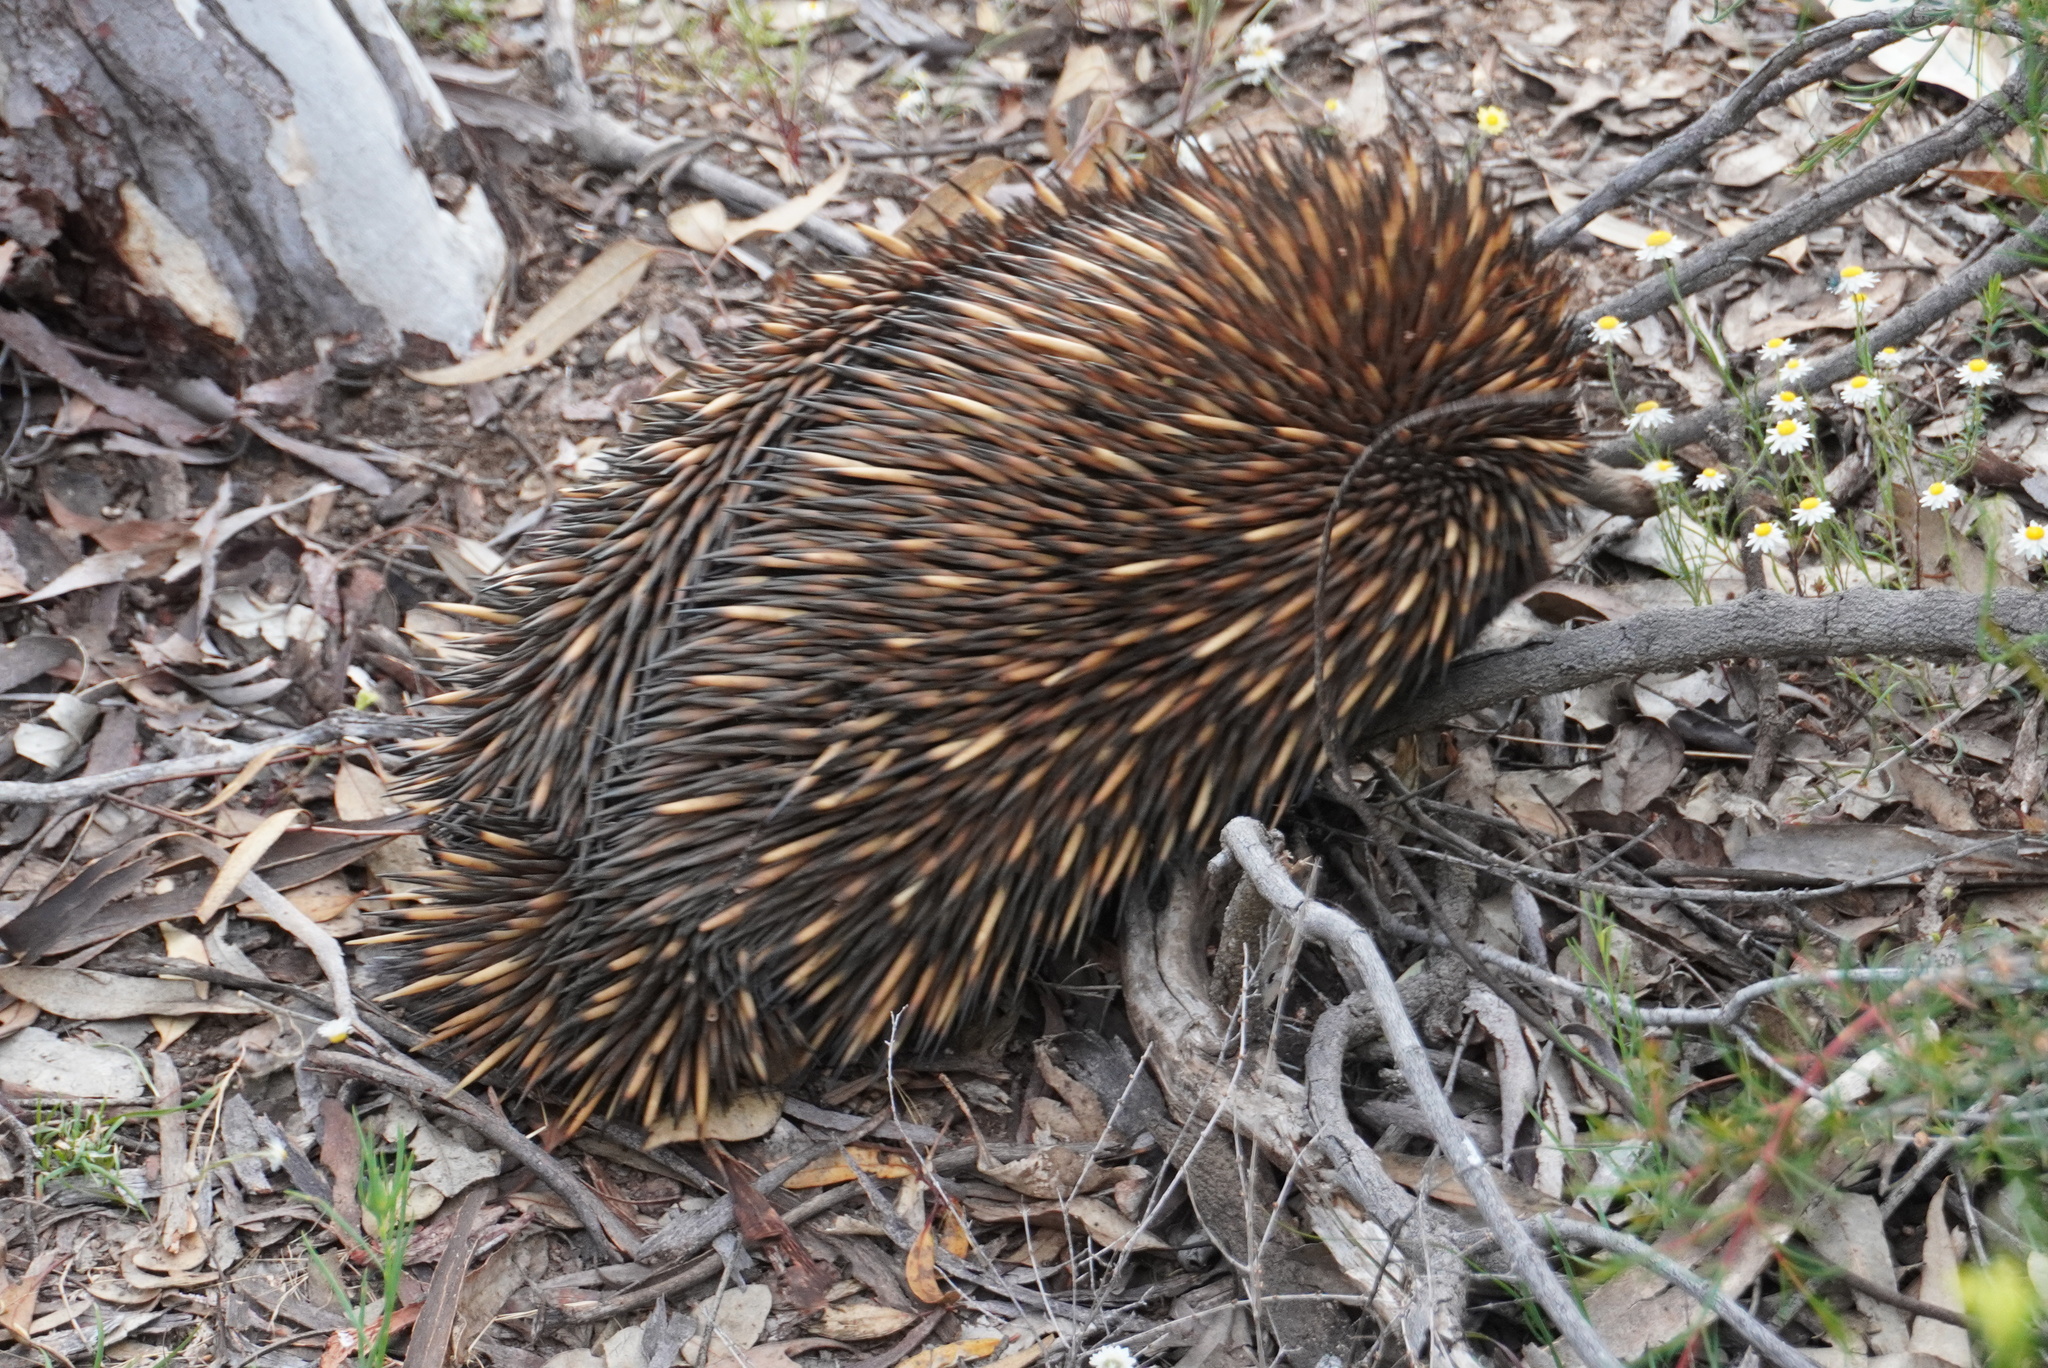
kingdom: Animalia
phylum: Chordata
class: Mammalia
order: Monotremata
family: Tachyglossidae
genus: Tachyglossus
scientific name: Tachyglossus aculeatus
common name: Short-beaked echidna
